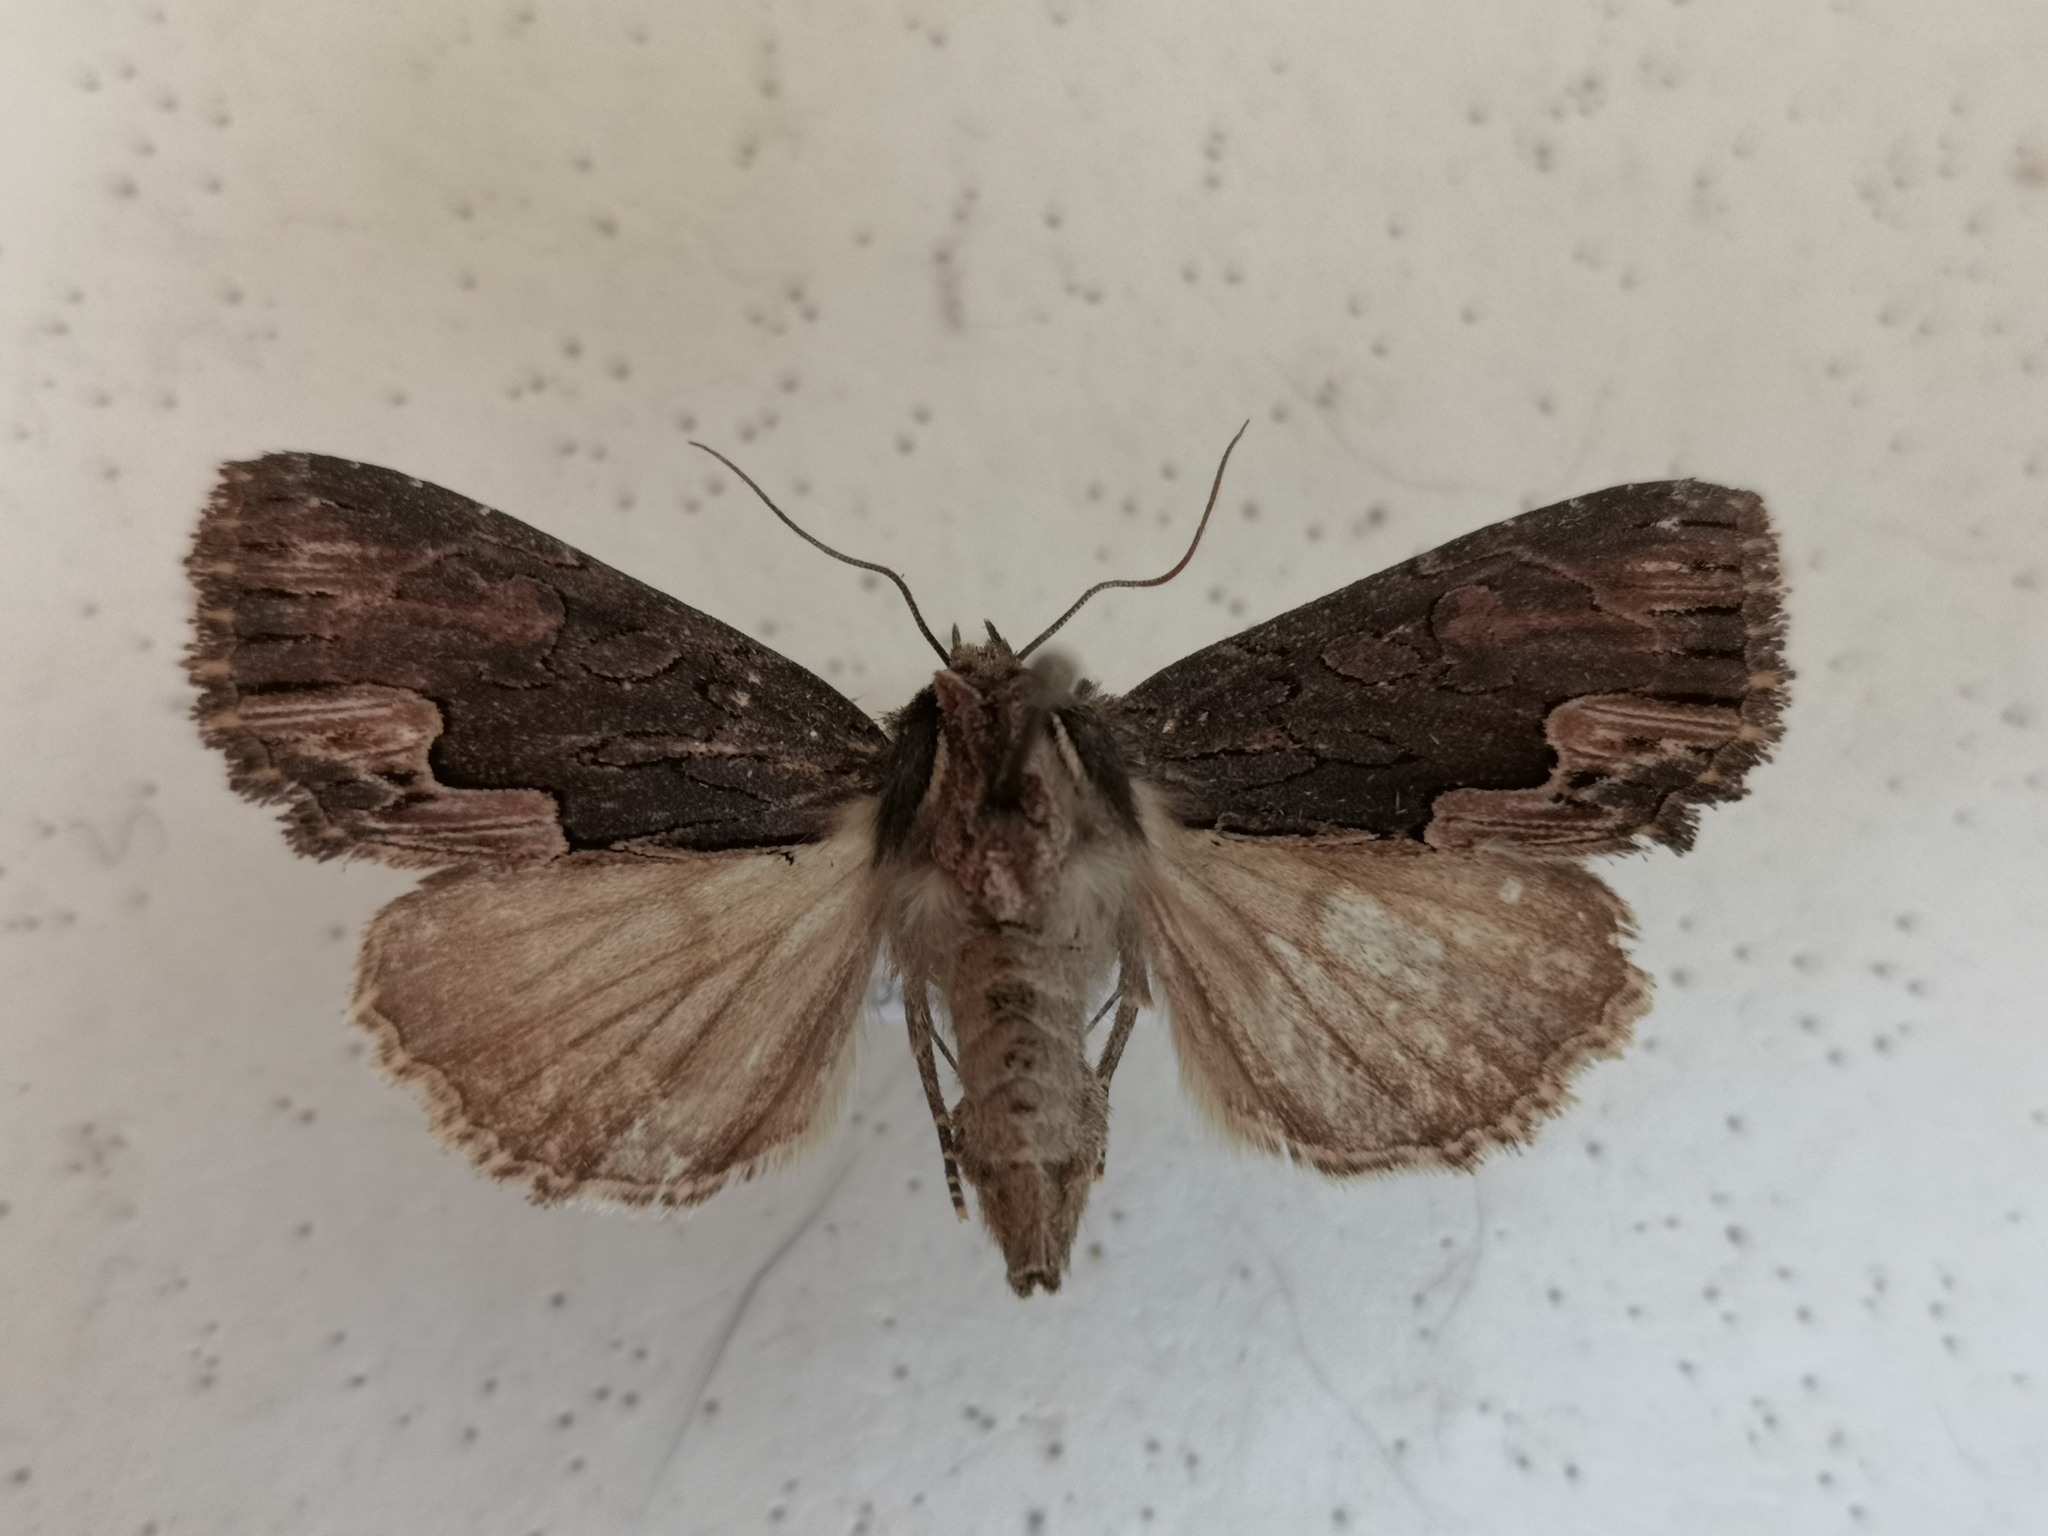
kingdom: Animalia
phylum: Arthropoda
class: Insecta
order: Lepidoptera
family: Noctuidae
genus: Dypterygia
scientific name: Dypterygia scabriuscula
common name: Bird's wing
